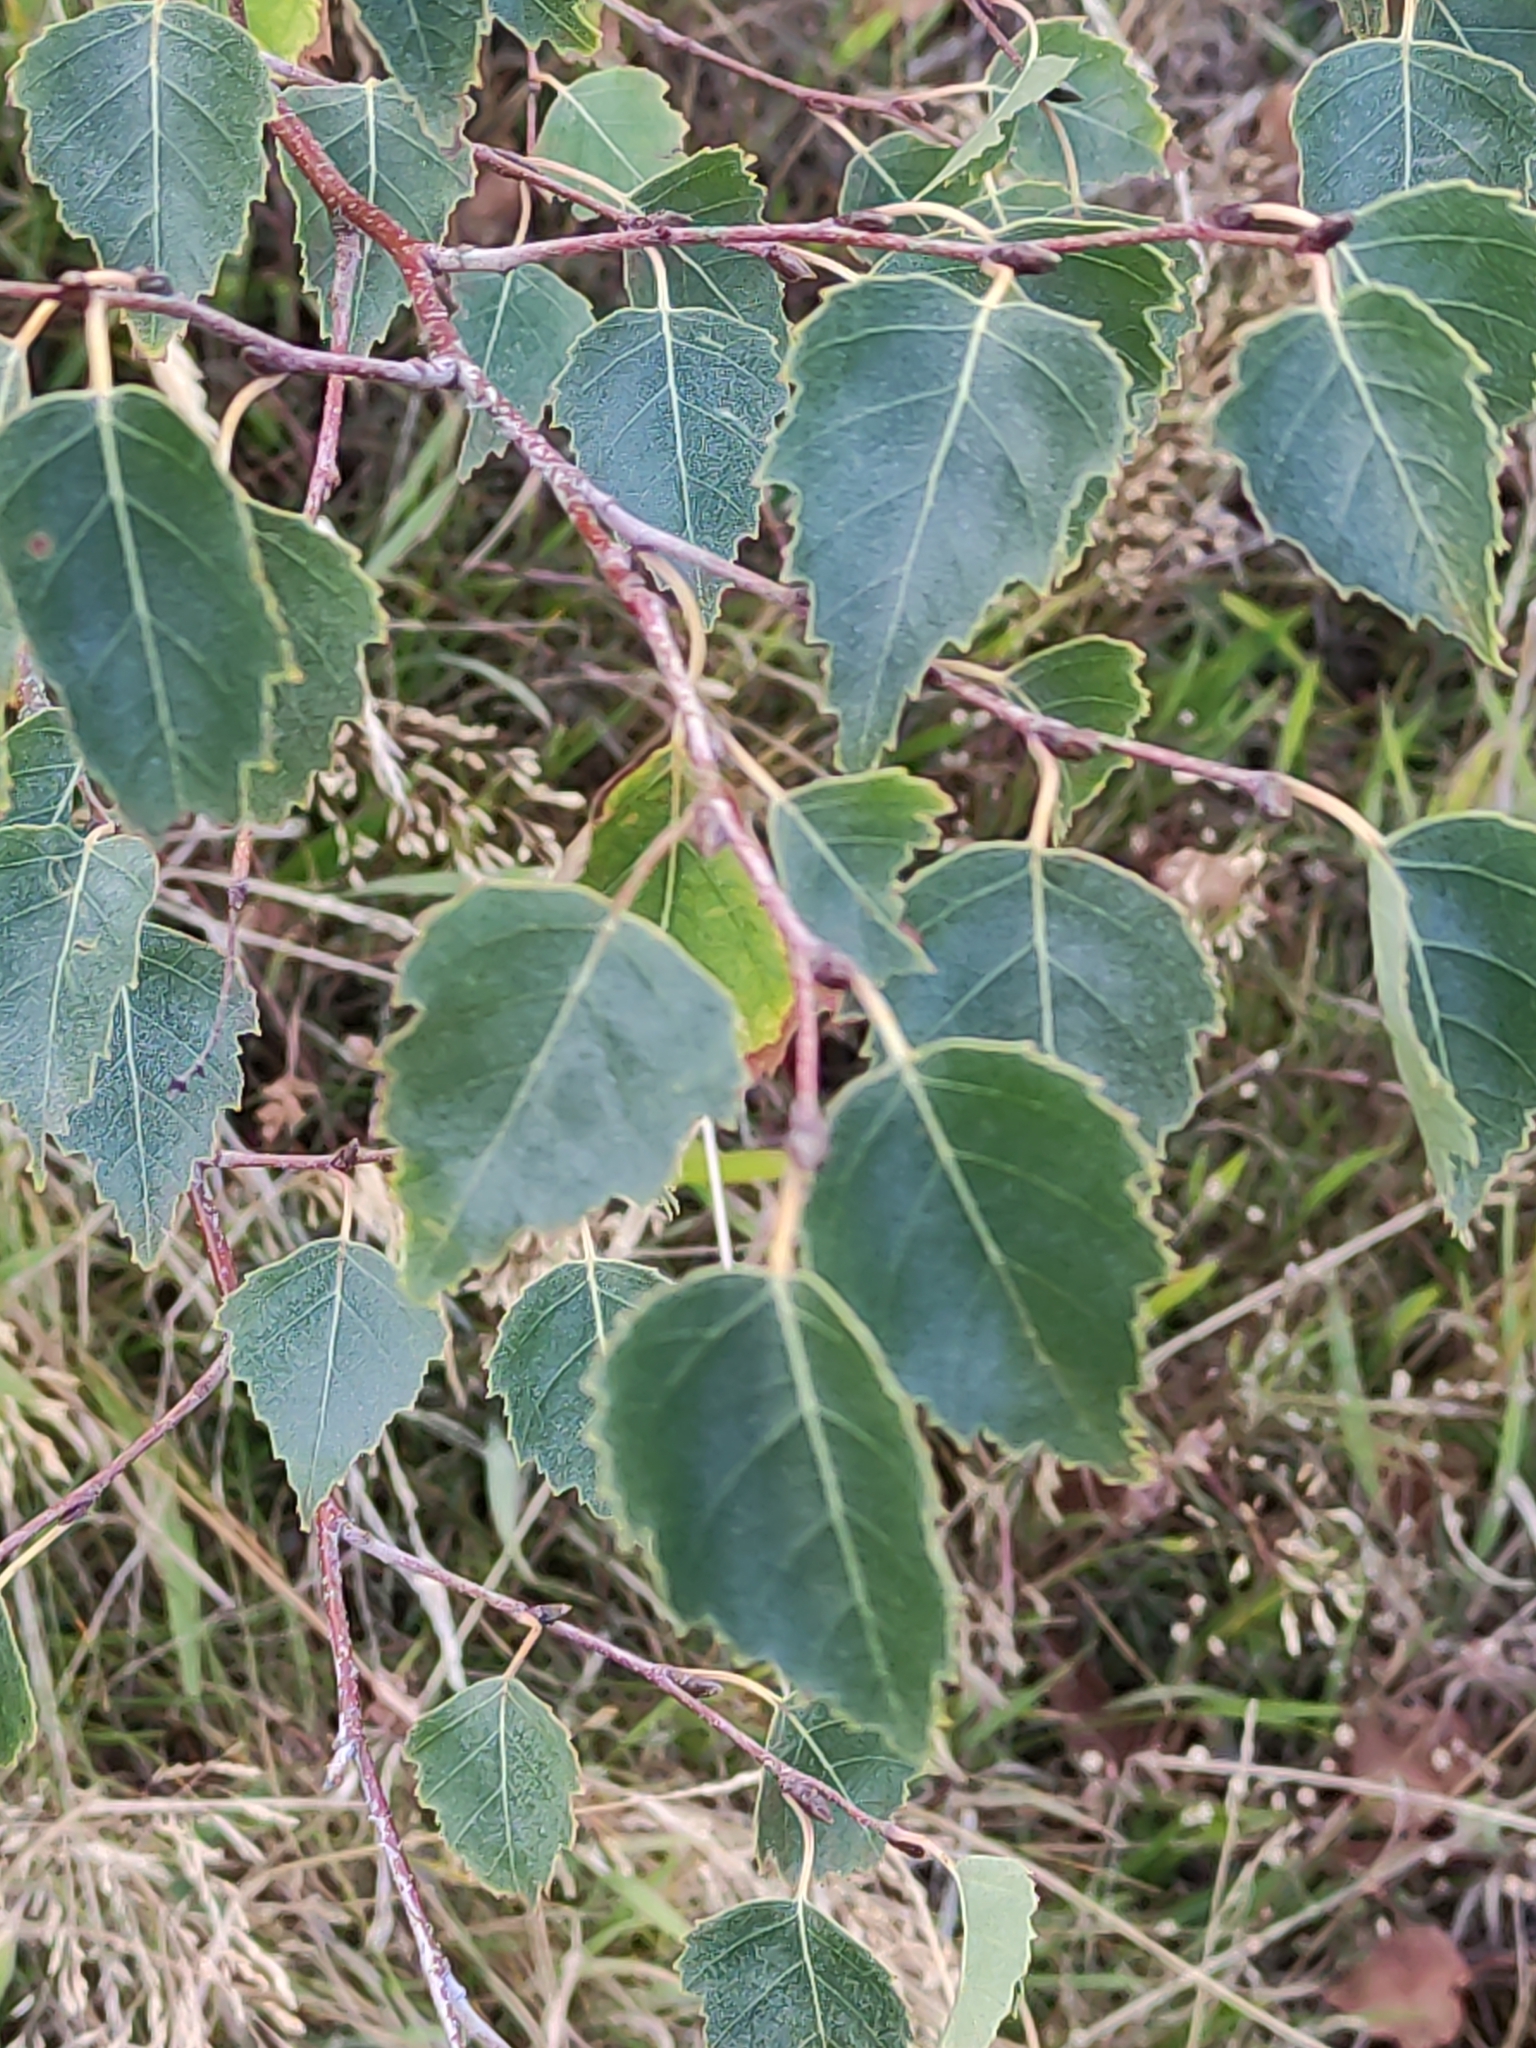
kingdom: Plantae
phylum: Tracheophyta
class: Magnoliopsida
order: Fagales
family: Betulaceae
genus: Betula
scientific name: Betula pendula
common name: Silver birch
